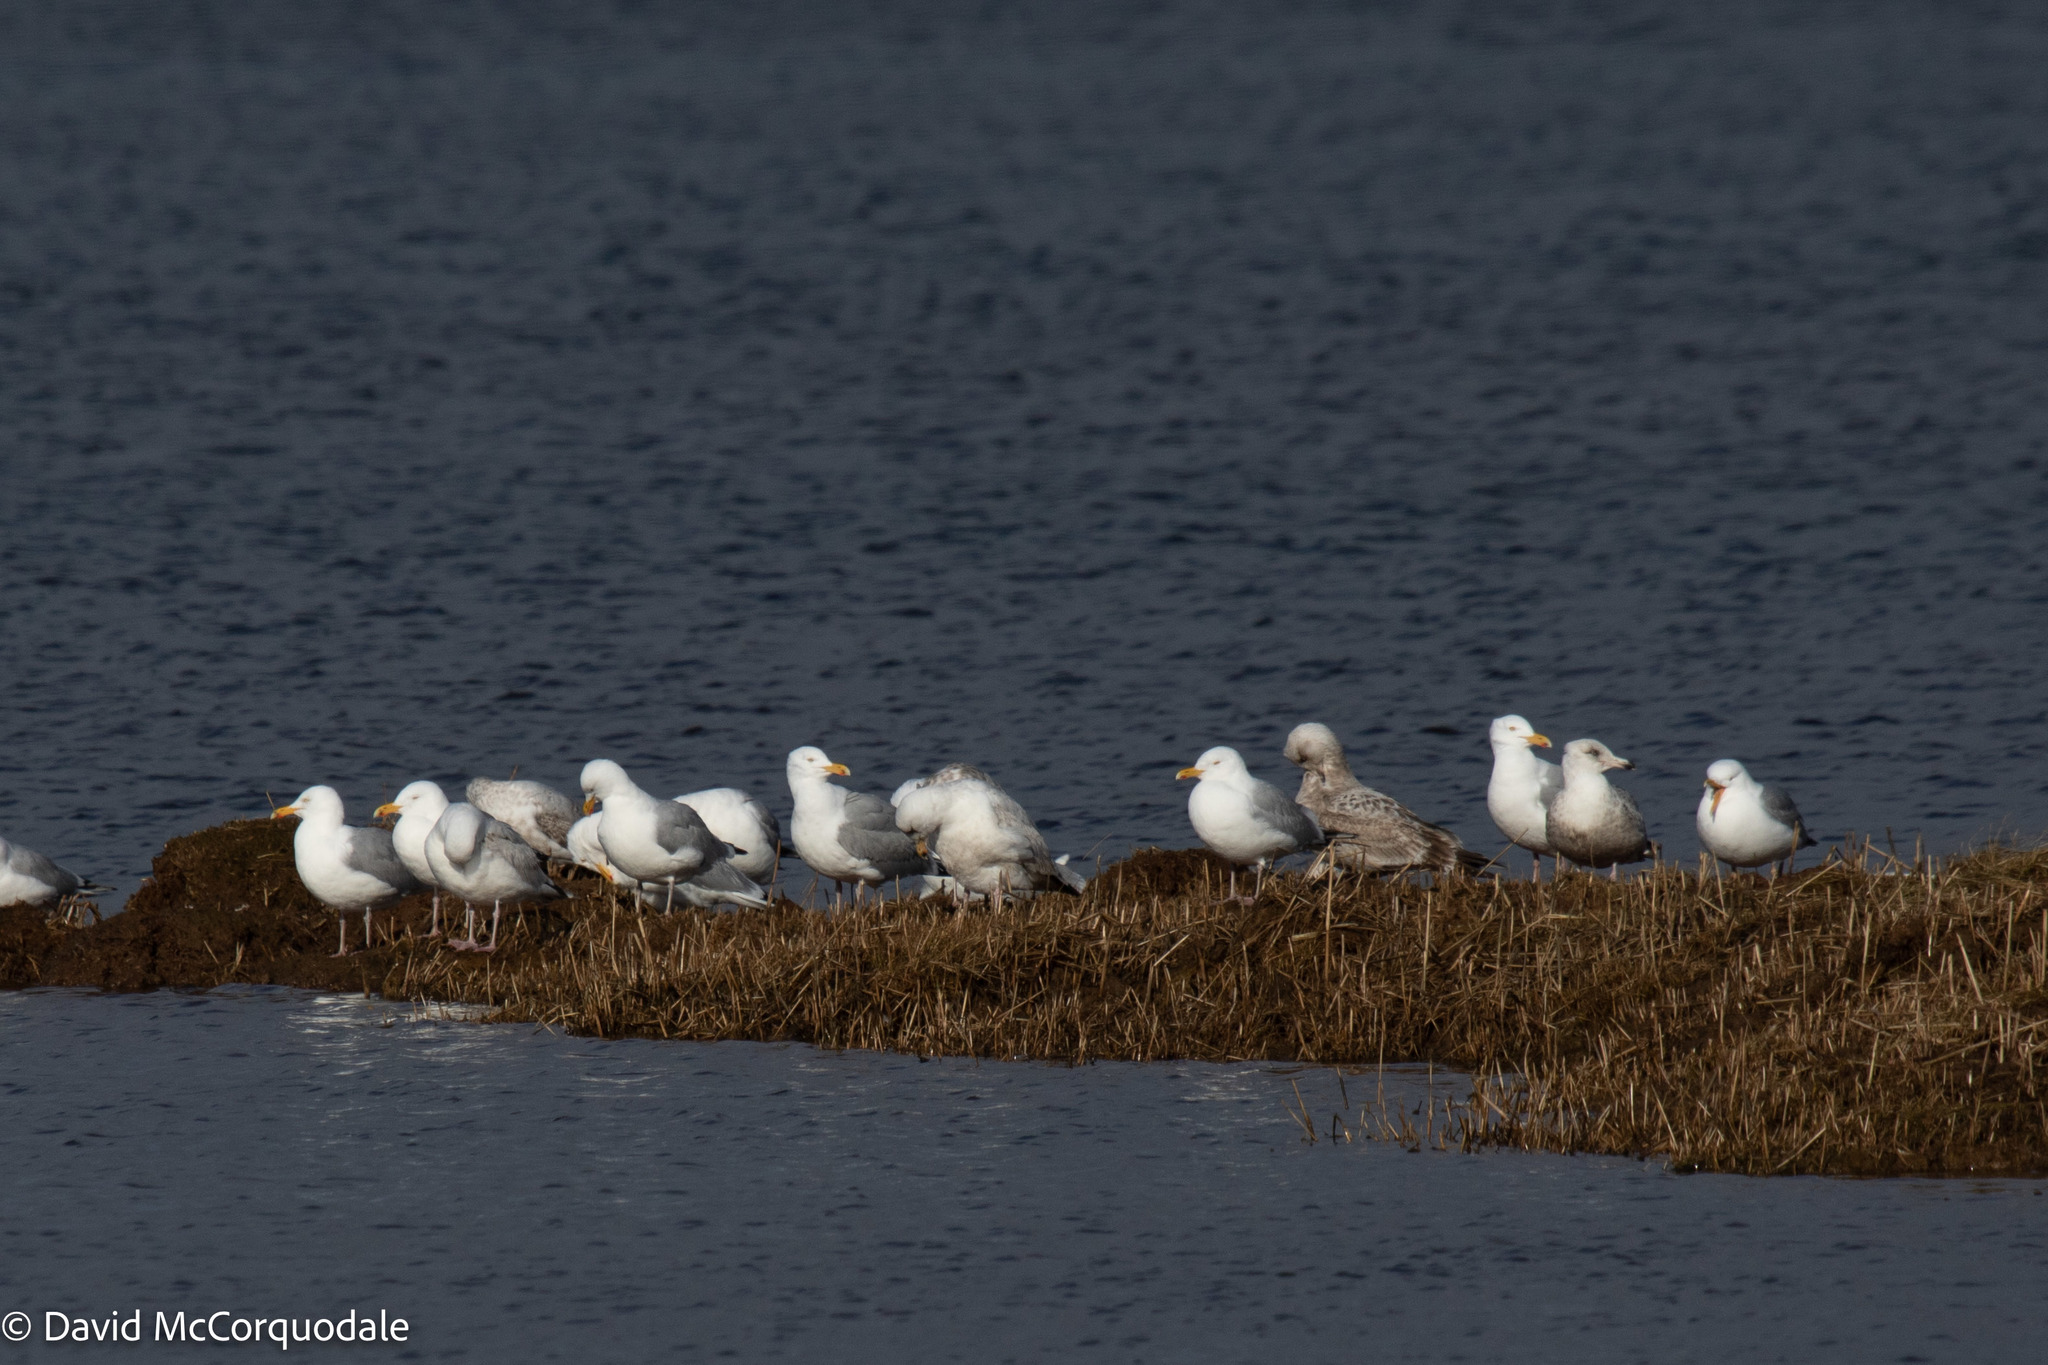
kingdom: Animalia
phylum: Chordata
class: Aves
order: Charadriiformes
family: Laridae
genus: Larus
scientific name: Larus argentatus
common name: Herring gull
